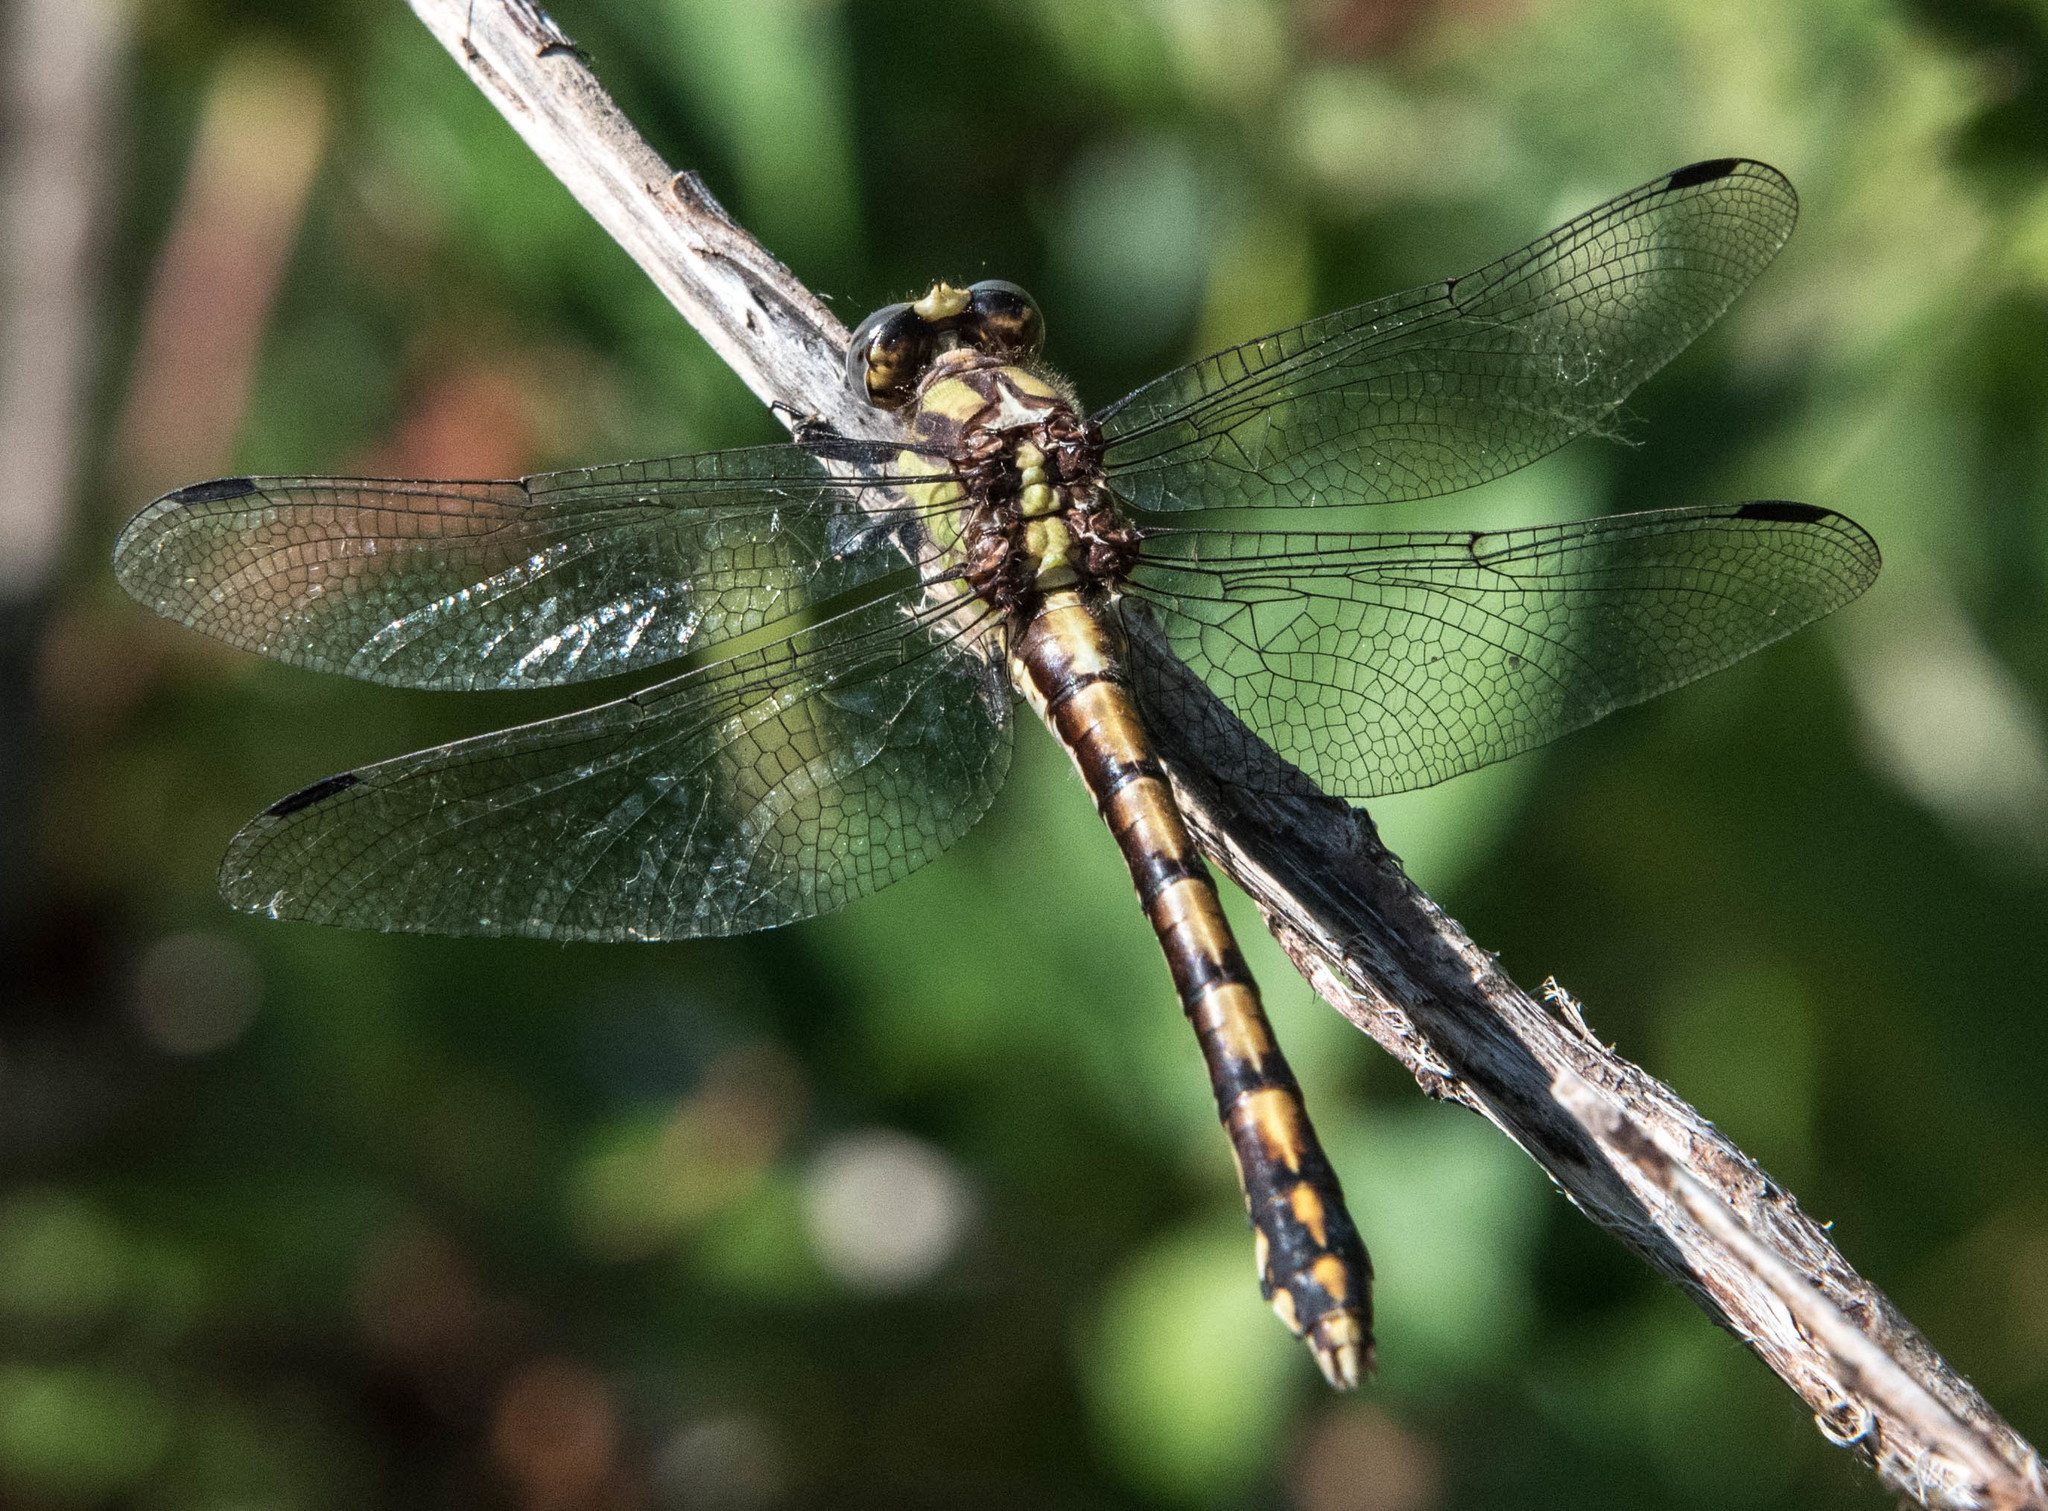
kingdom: Animalia
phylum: Arthropoda
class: Insecta
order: Odonata
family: Gomphidae
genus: Ophiogomphus
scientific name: Ophiogomphus bison
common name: Bison snaketail
